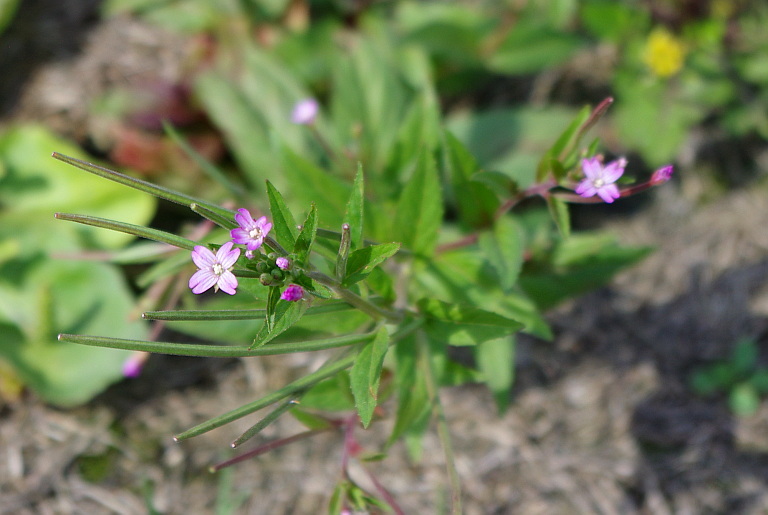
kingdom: Plantae
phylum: Tracheophyta
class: Magnoliopsida
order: Myrtales
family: Onagraceae
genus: Epilobium
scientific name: Epilobium ciliatum
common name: American willowherb
